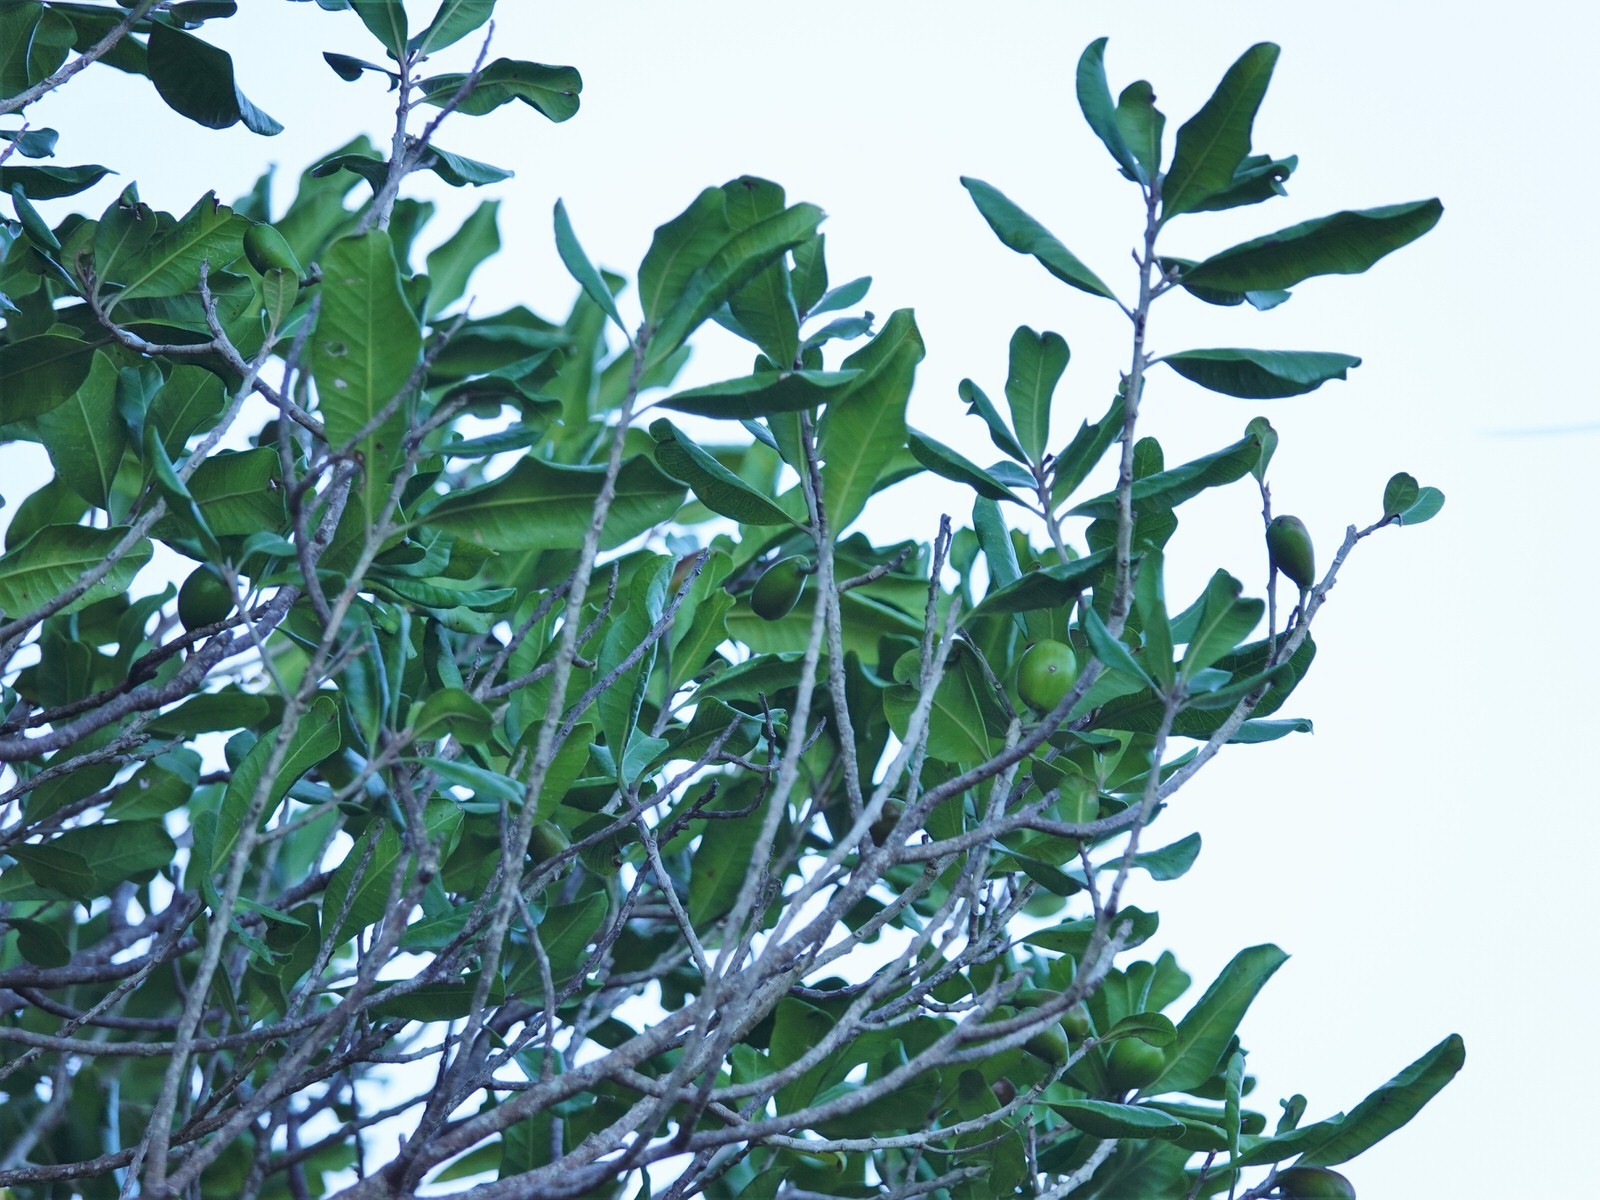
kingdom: Plantae
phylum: Tracheophyta
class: Magnoliopsida
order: Ericales
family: Sapotaceae
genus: Planchonella
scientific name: Planchonella costata
